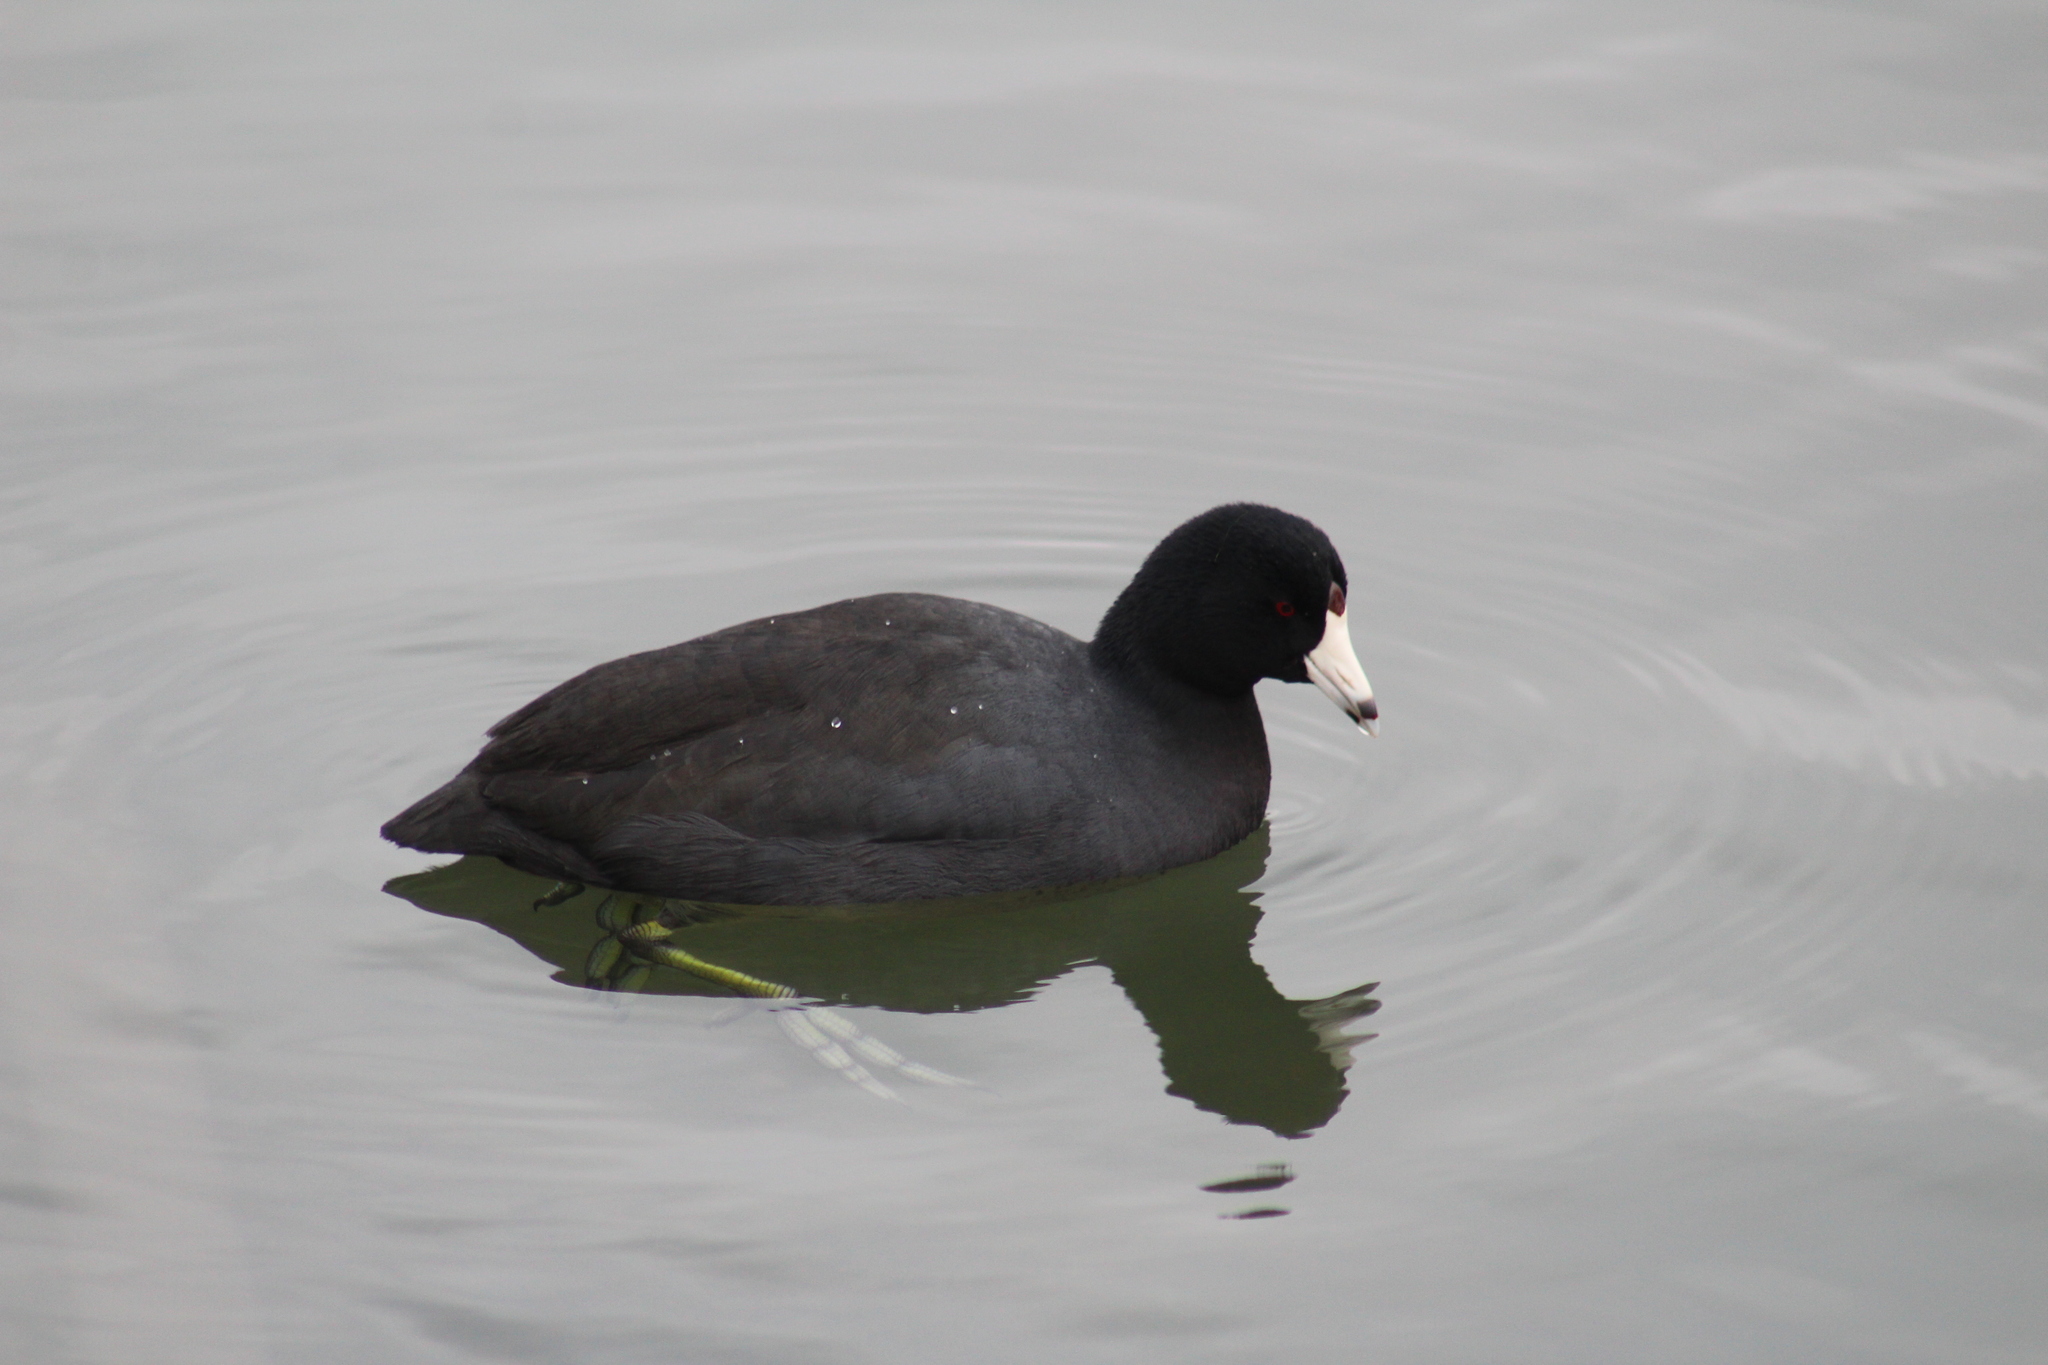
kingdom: Animalia
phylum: Chordata
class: Aves
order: Gruiformes
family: Rallidae
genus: Fulica
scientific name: Fulica americana
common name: American coot
